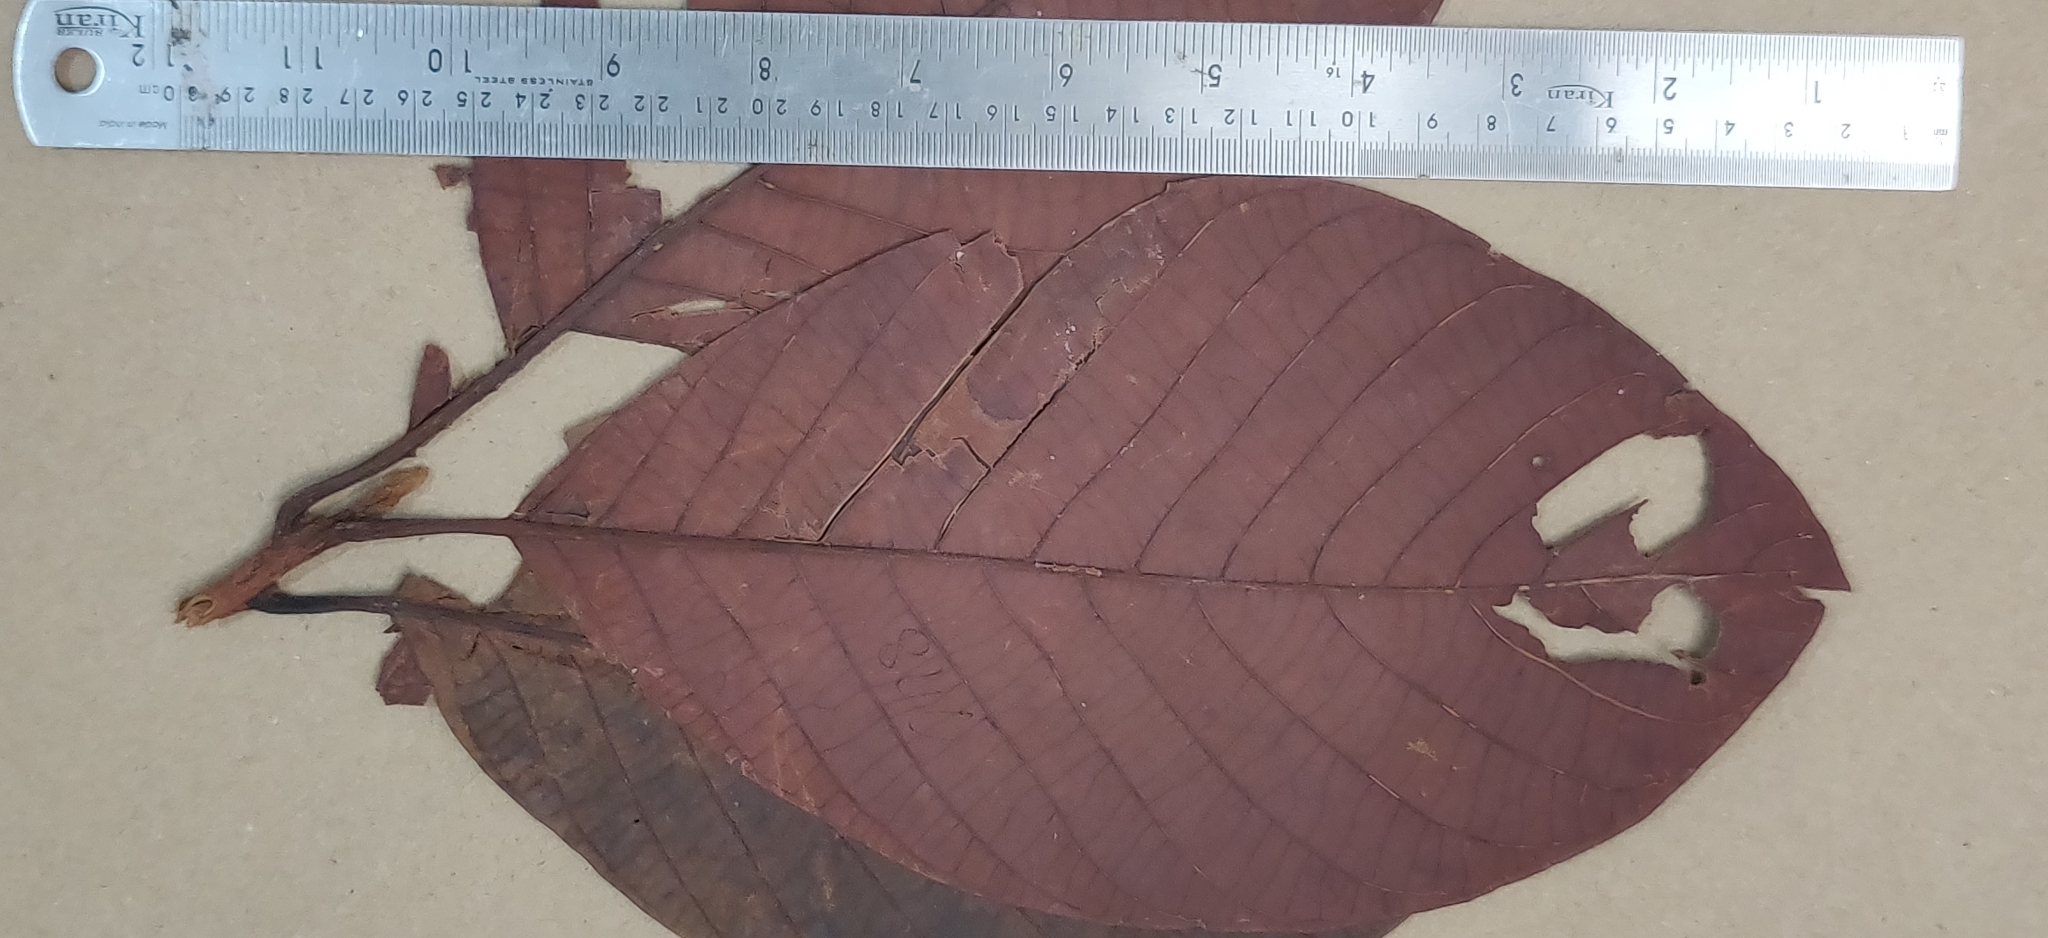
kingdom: Plantae
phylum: Tracheophyta
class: Magnoliopsida
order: Laurales
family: Lauraceae
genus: Litsea
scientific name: Litsea keralana
